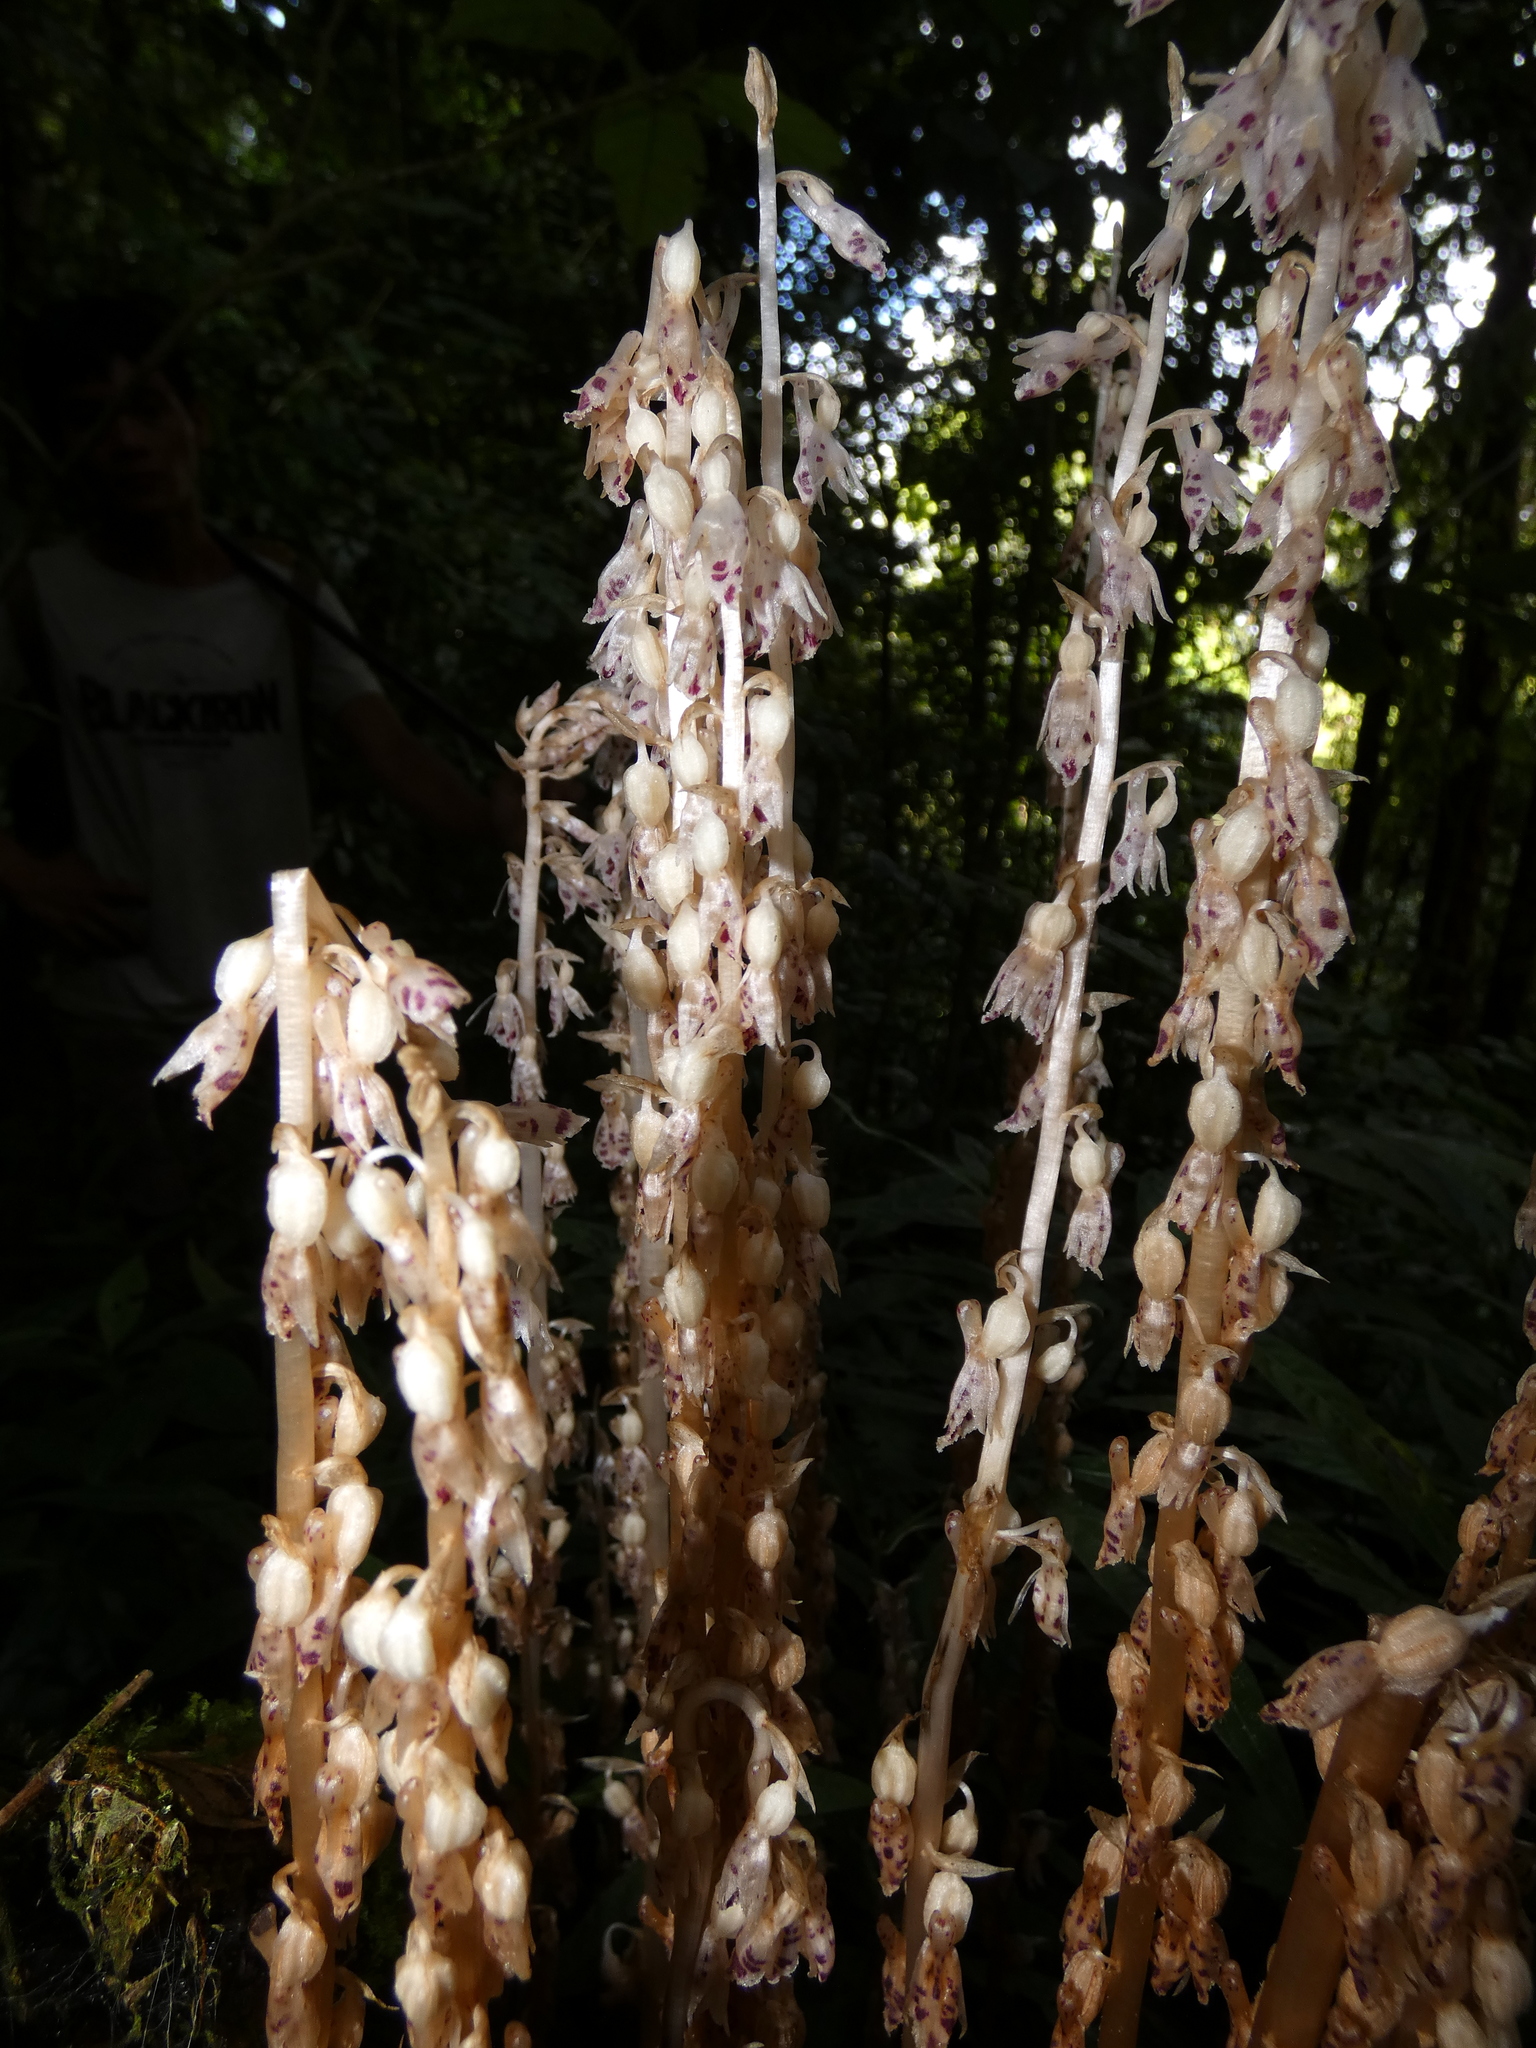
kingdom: Plantae
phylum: Tracheophyta
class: Liliopsida
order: Asparagales
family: Orchidaceae
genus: Epipogium
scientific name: Epipogium roseum
